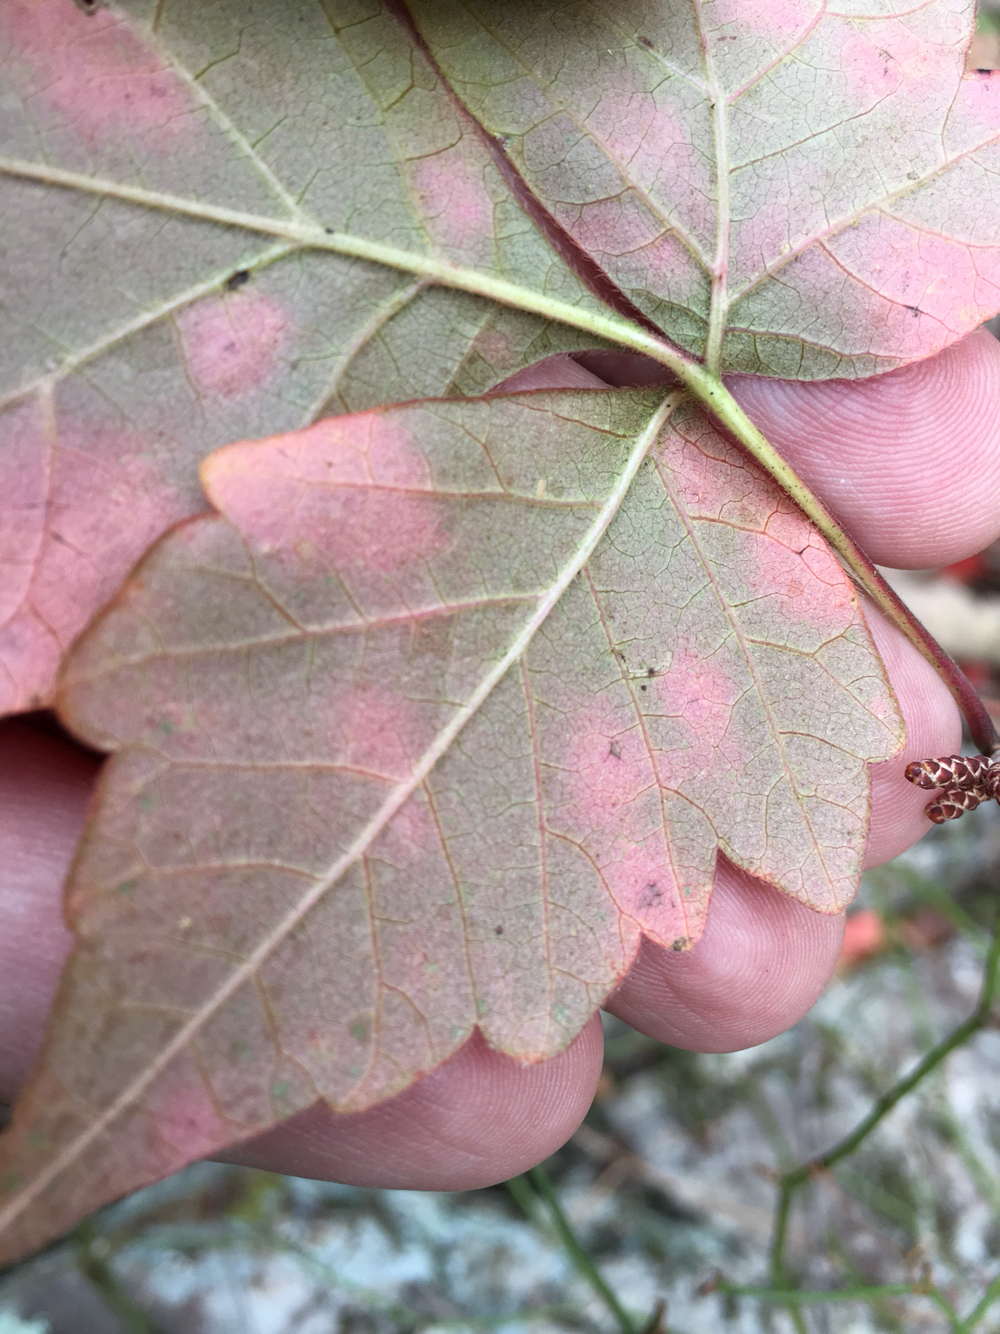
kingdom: Plantae
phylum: Tracheophyta
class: Magnoliopsida
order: Sapindales
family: Anacardiaceae
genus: Rhus
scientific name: Rhus aromatica
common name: Aromatic sumac
